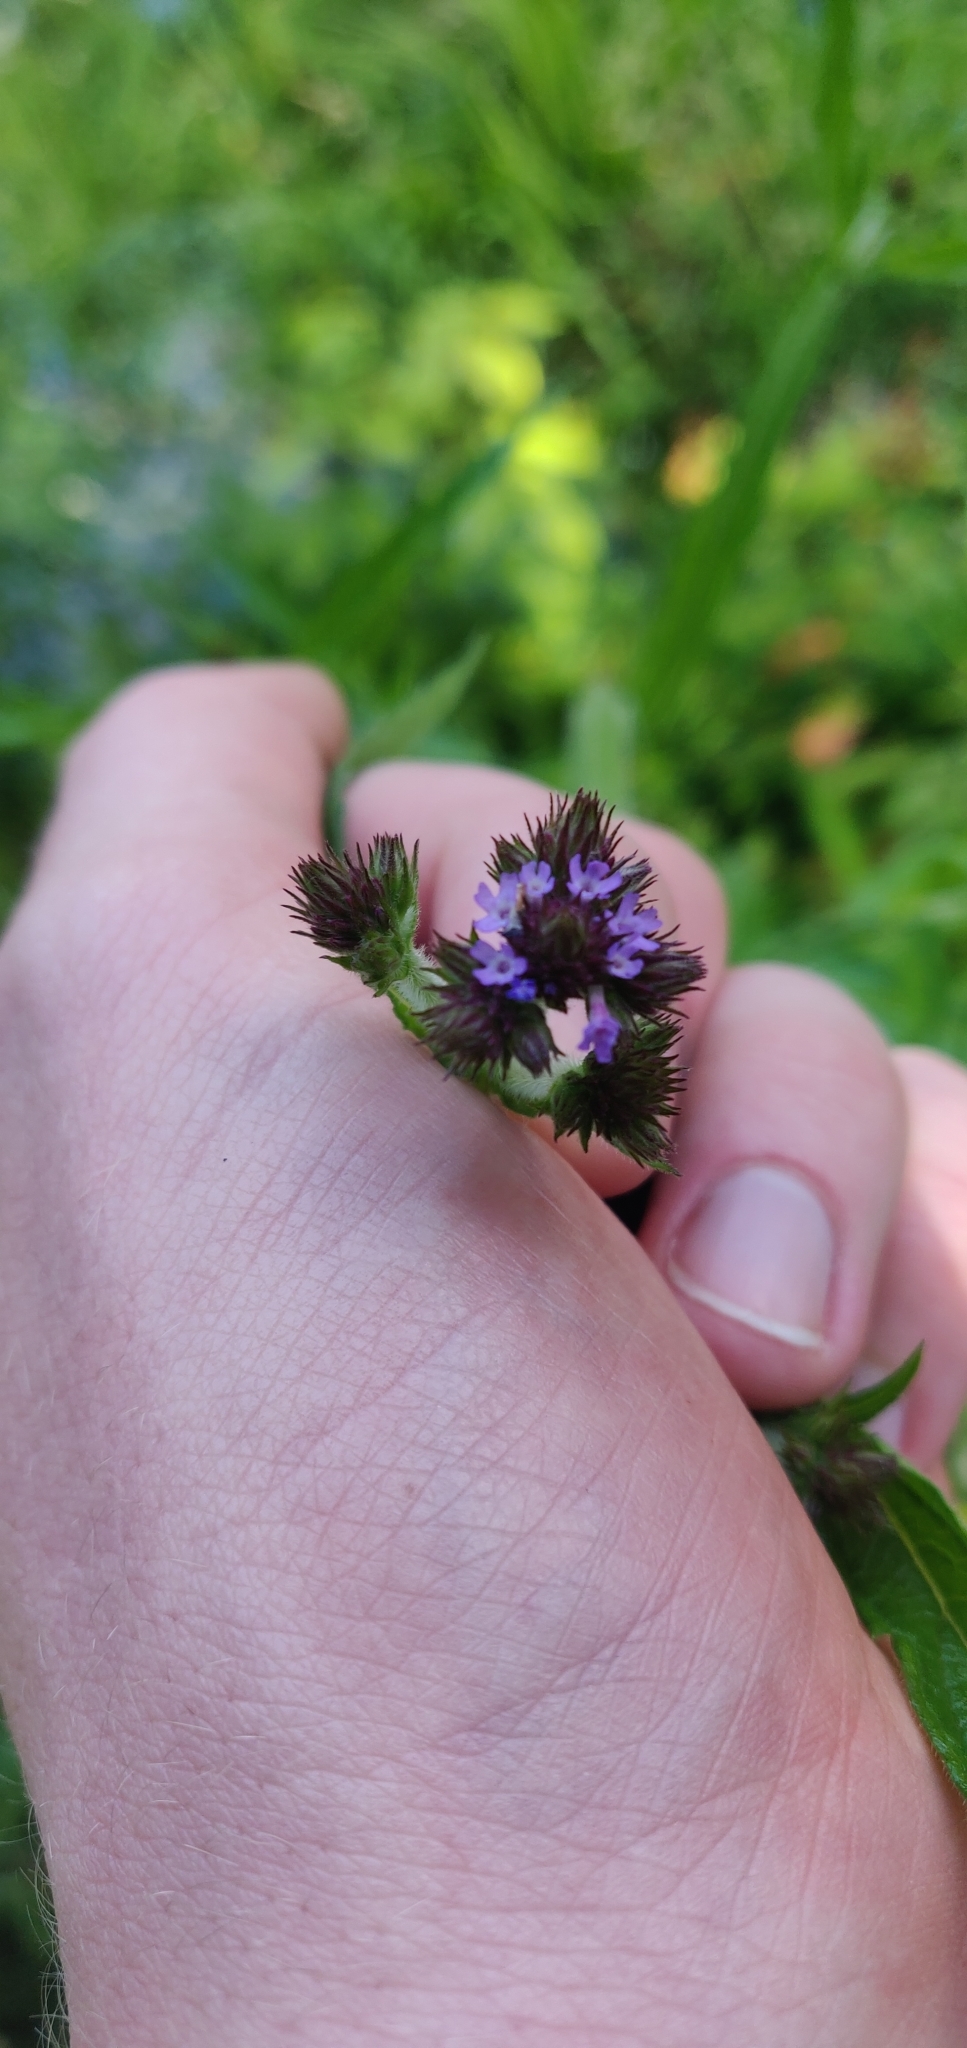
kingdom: Plantae
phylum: Tracheophyta
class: Magnoliopsida
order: Lamiales
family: Verbenaceae
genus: Verbena
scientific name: Verbena incompta
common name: Purpletop vervain
